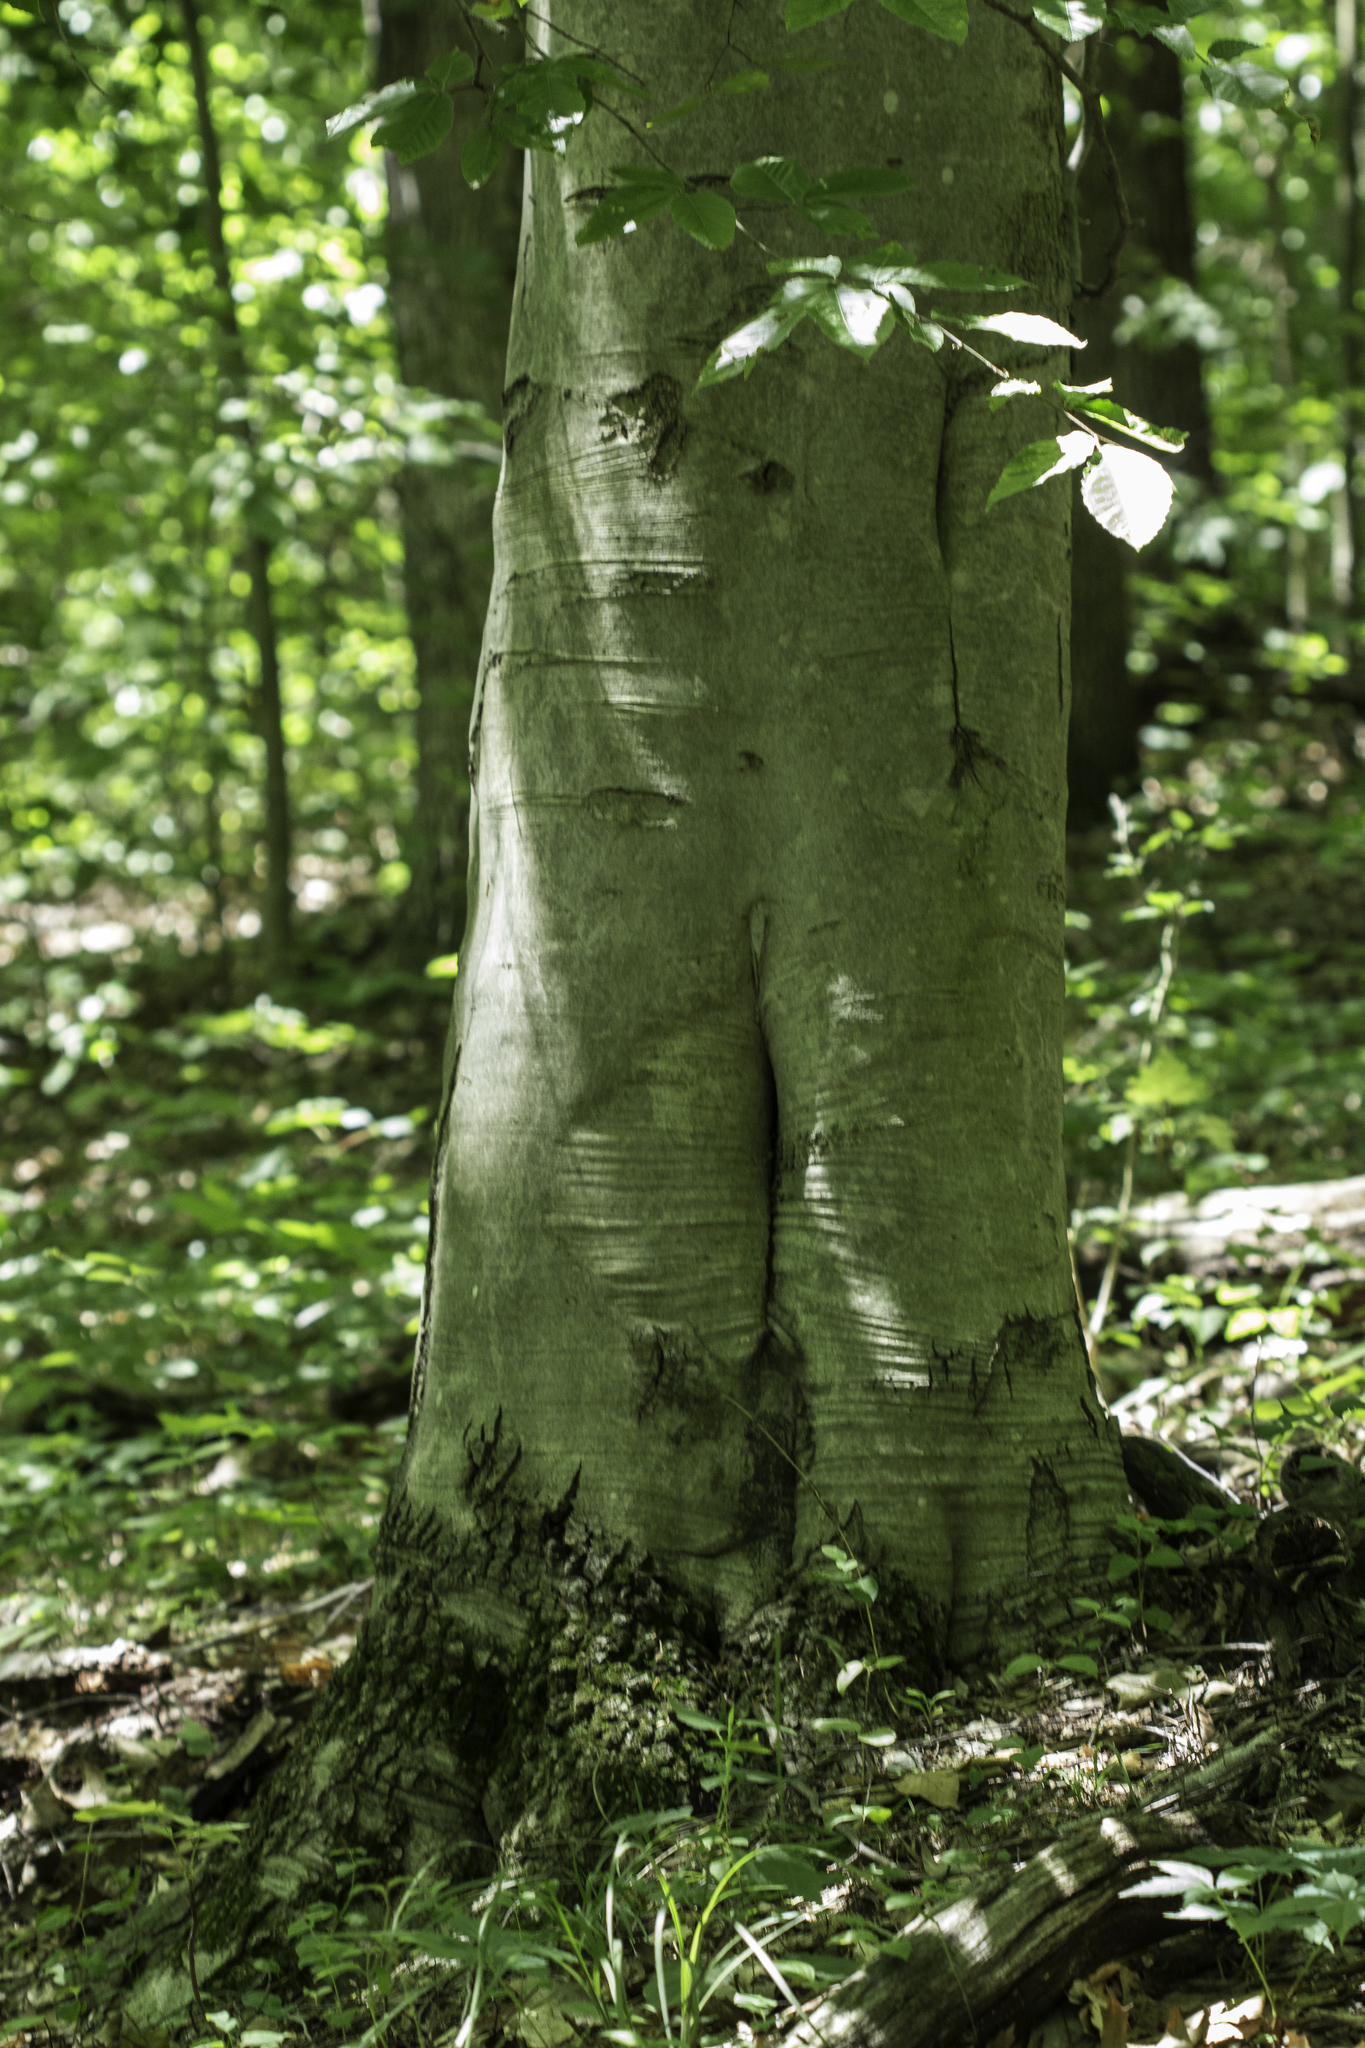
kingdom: Plantae
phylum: Tracheophyta
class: Magnoliopsida
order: Fagales
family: Fagaceae
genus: Fagus
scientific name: Fagus grandifolia
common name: American beech
